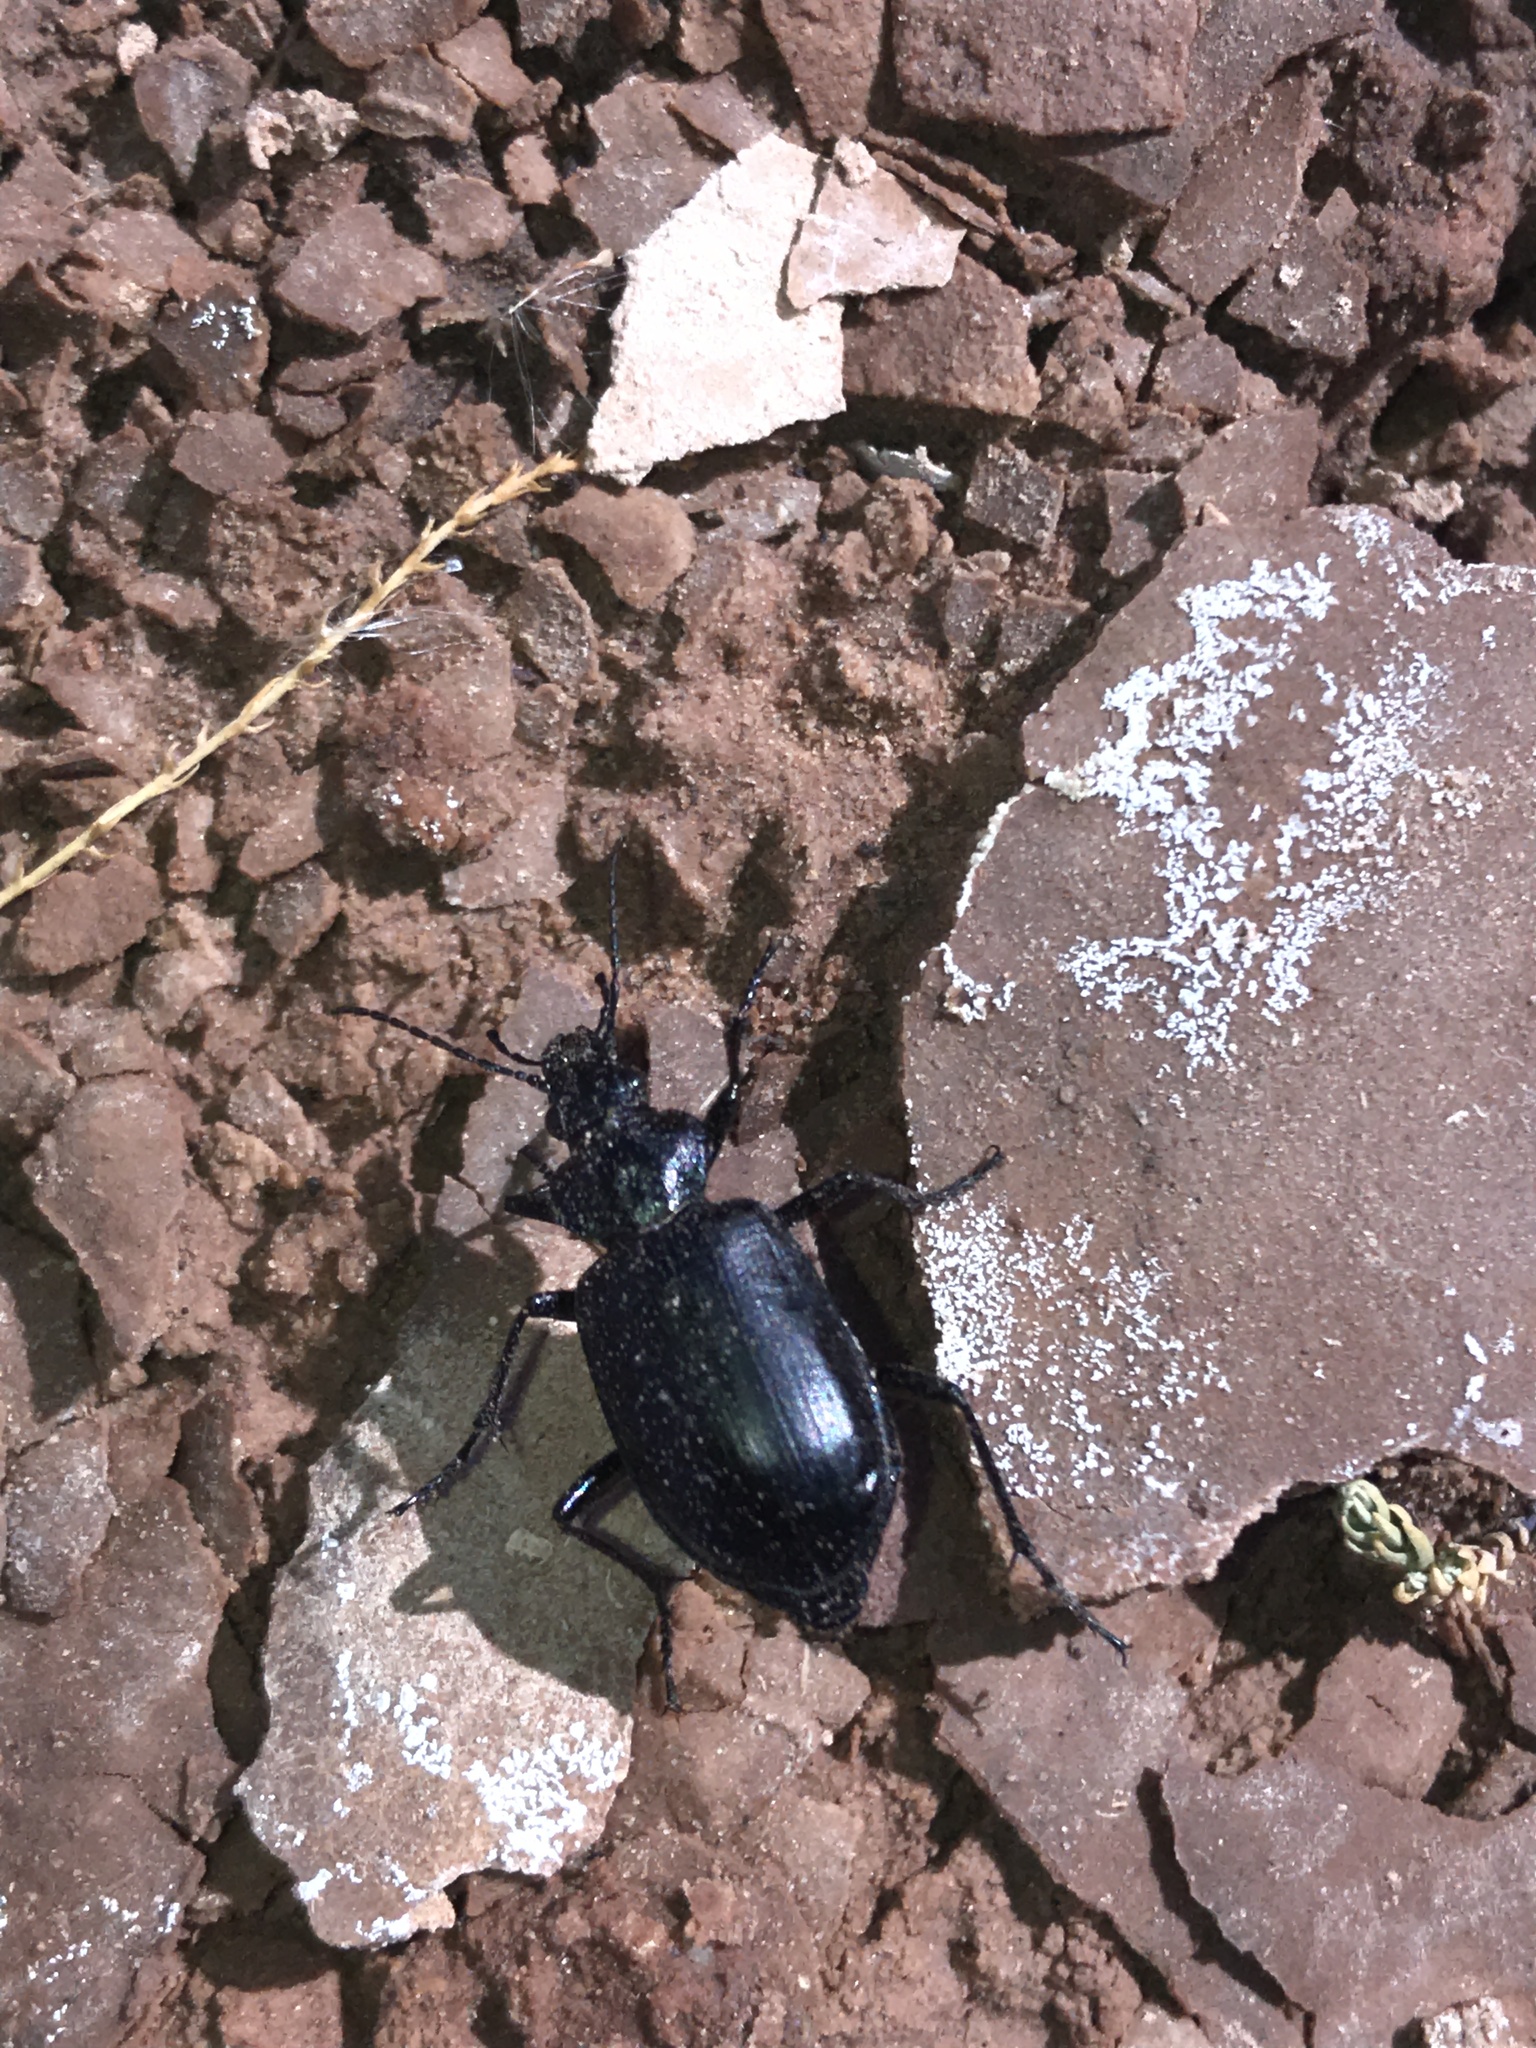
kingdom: Animalia
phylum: Arthropoda
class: Insecta
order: Coleoptera
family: Carabidae
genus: Calosoma
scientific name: Calosoma peregrinator
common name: Ground beetle
